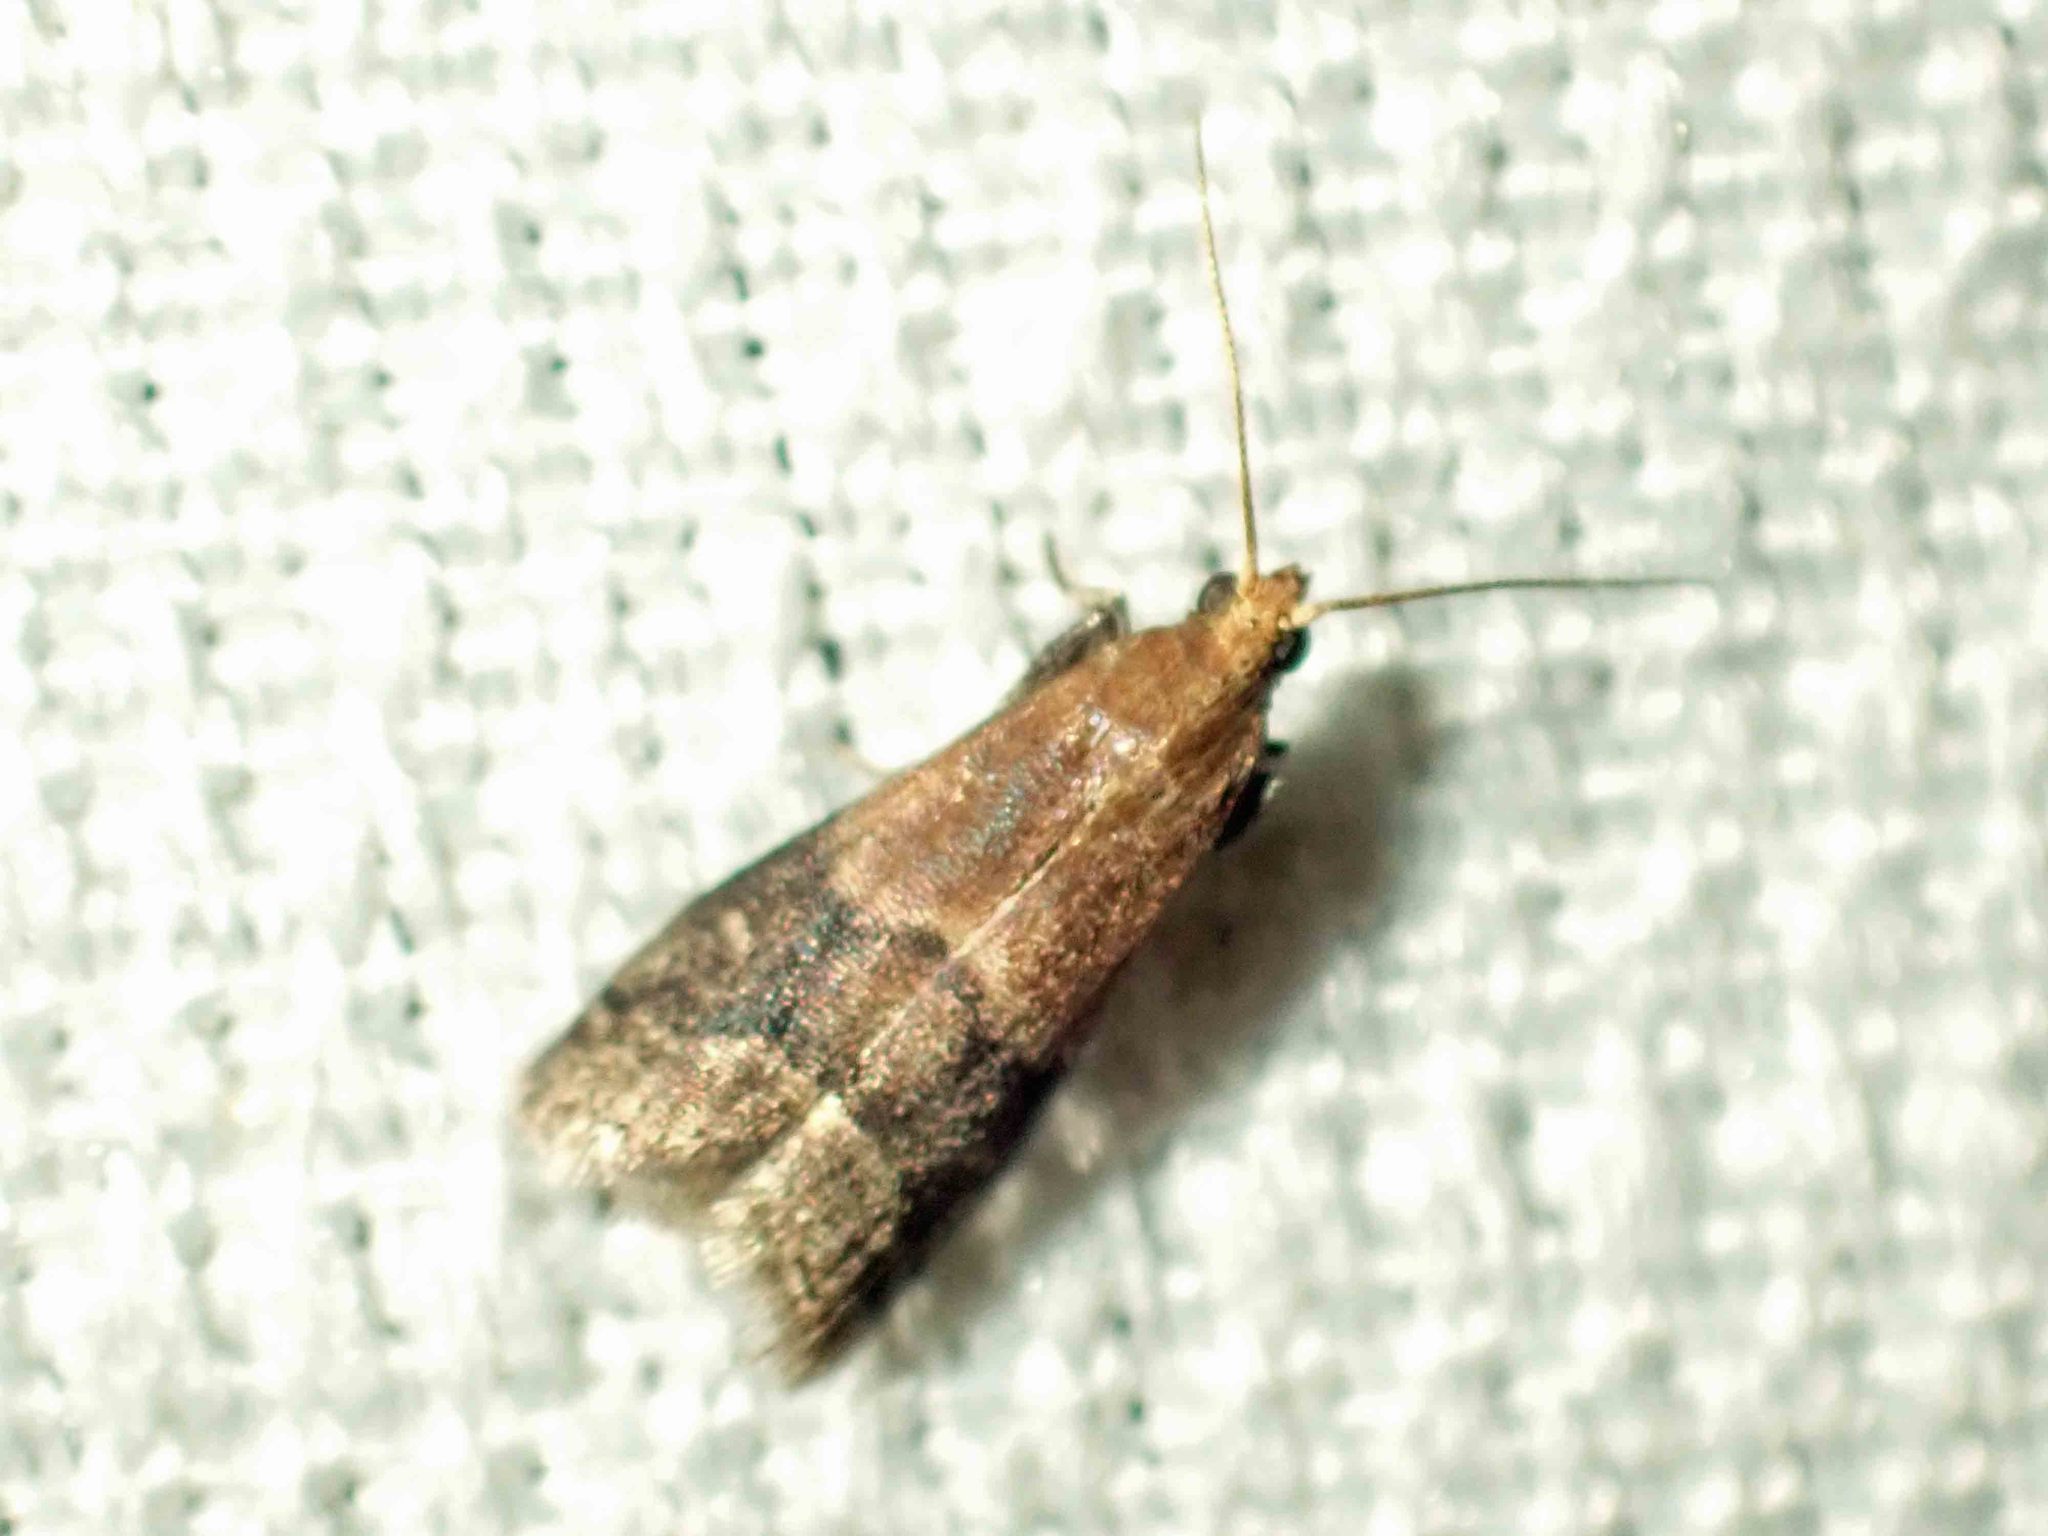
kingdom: Animalia
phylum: Arthropoda
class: Insecta
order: Lepidoptera
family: Pyralidae
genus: Eulogia
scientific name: Eulogia ochrifrontella
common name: Broad-banded eulogia moth
